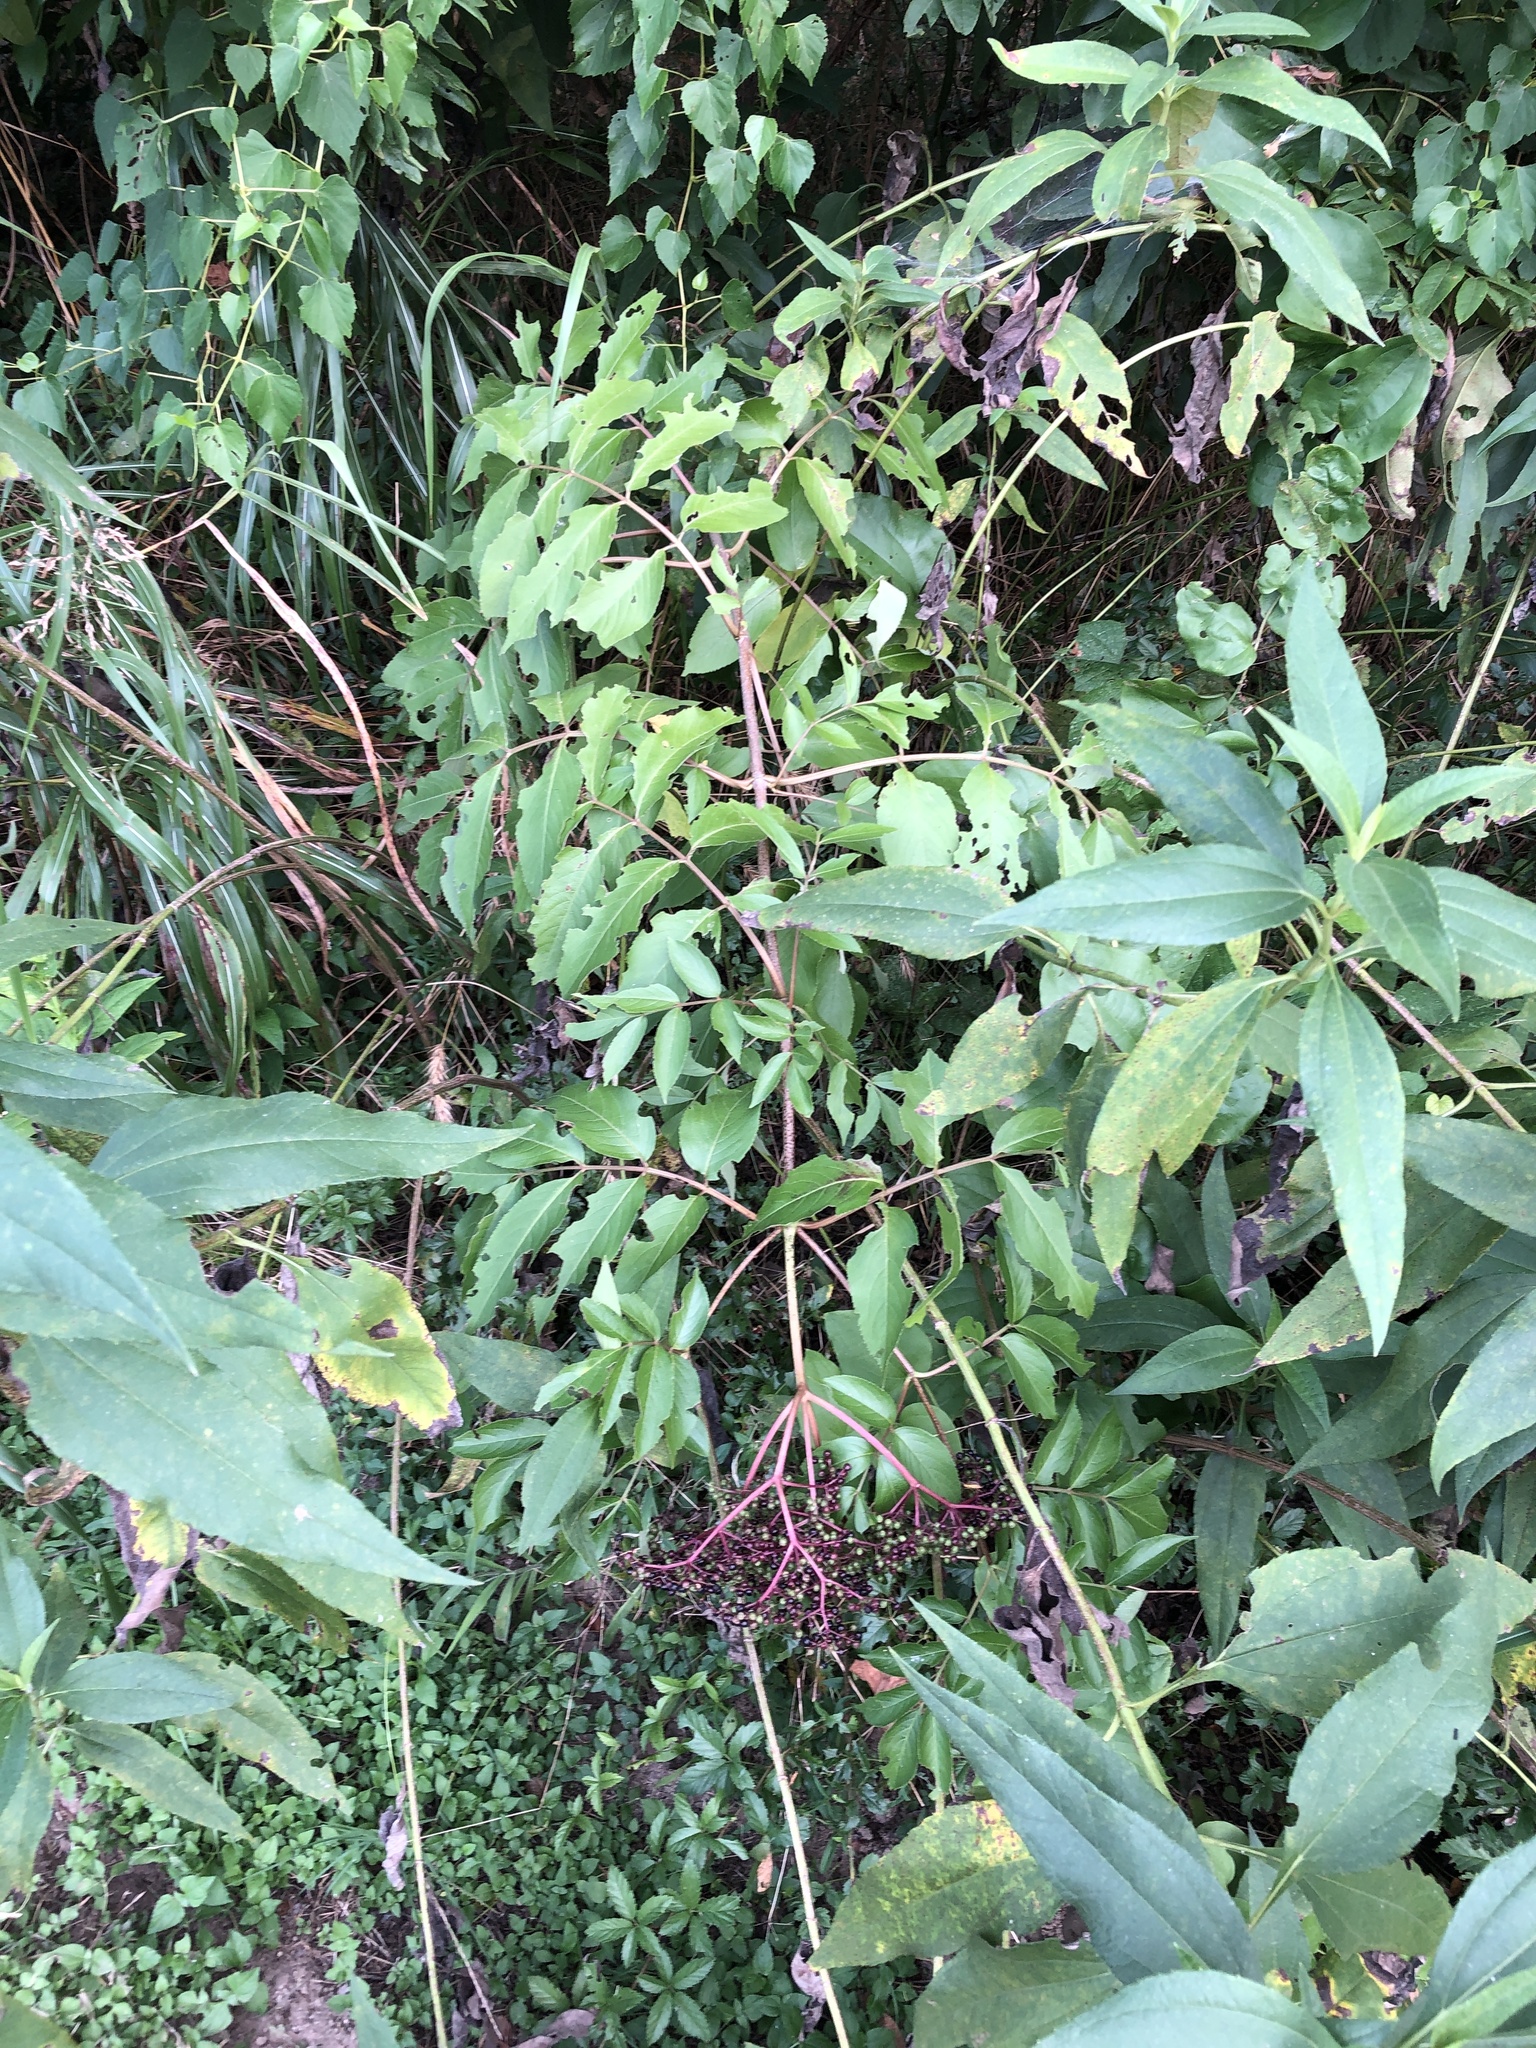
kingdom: Plantae
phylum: Tracheophyta
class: Magnoliopsida
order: Dipsacales
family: Viburnaceae
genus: Sambucus
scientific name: Sambucus canadensis
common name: American elder
